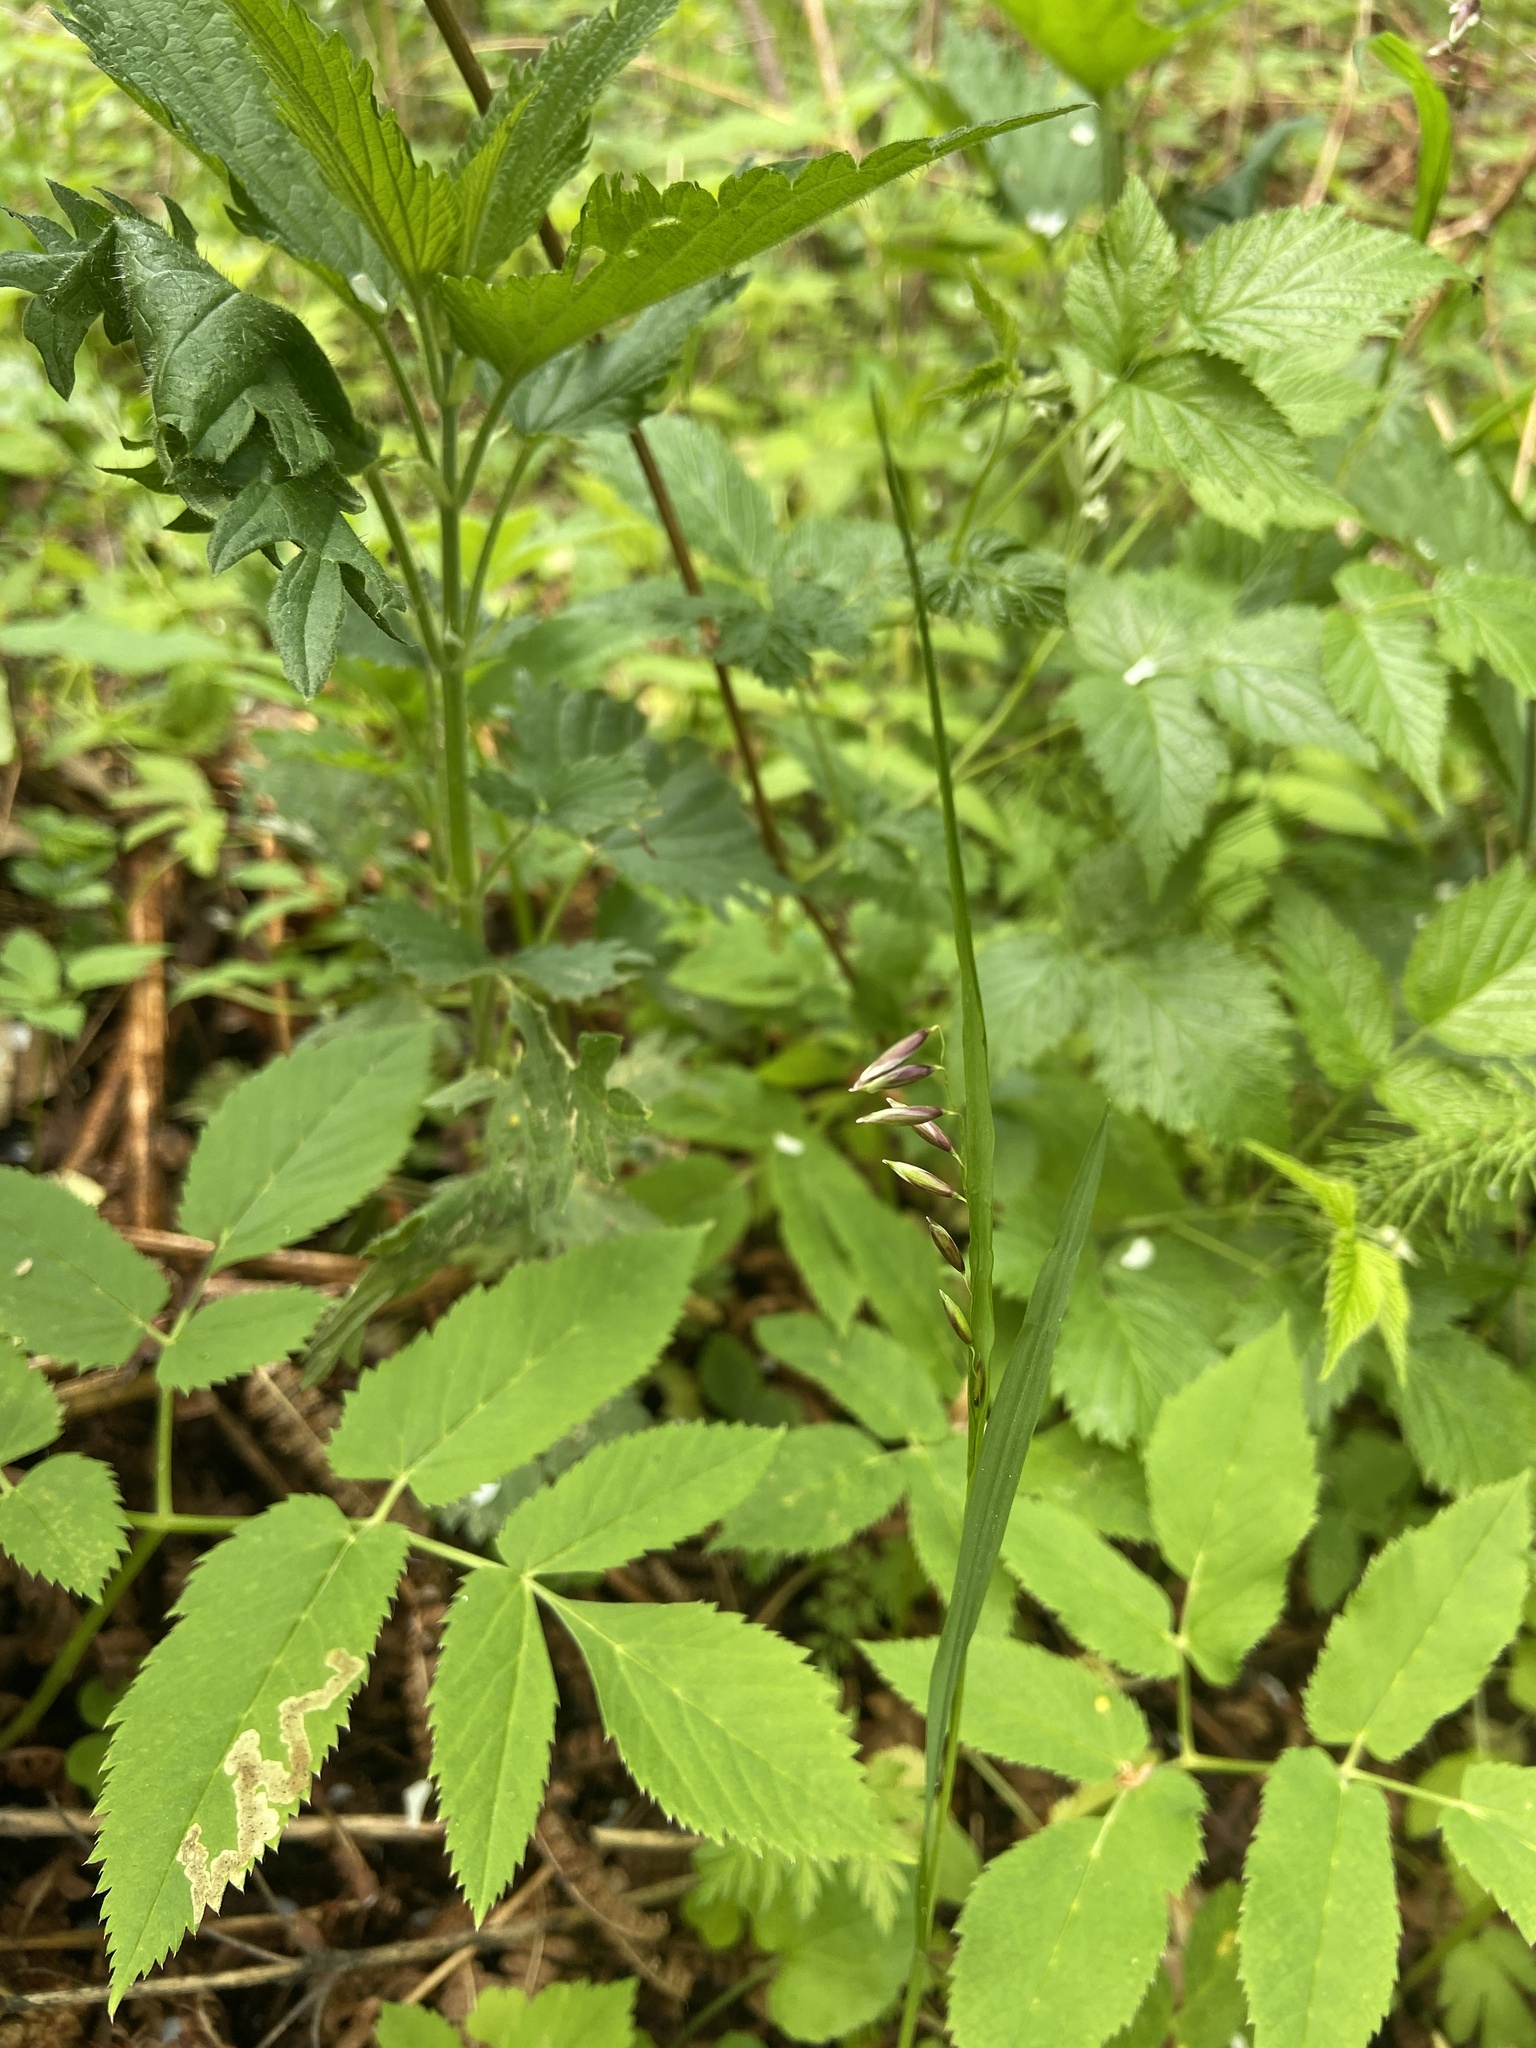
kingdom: Plantae
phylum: Tracheophyta
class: Liliopsida
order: Poales
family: Poaceae
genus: Melica
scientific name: Melica nutans
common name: Mountain melick
